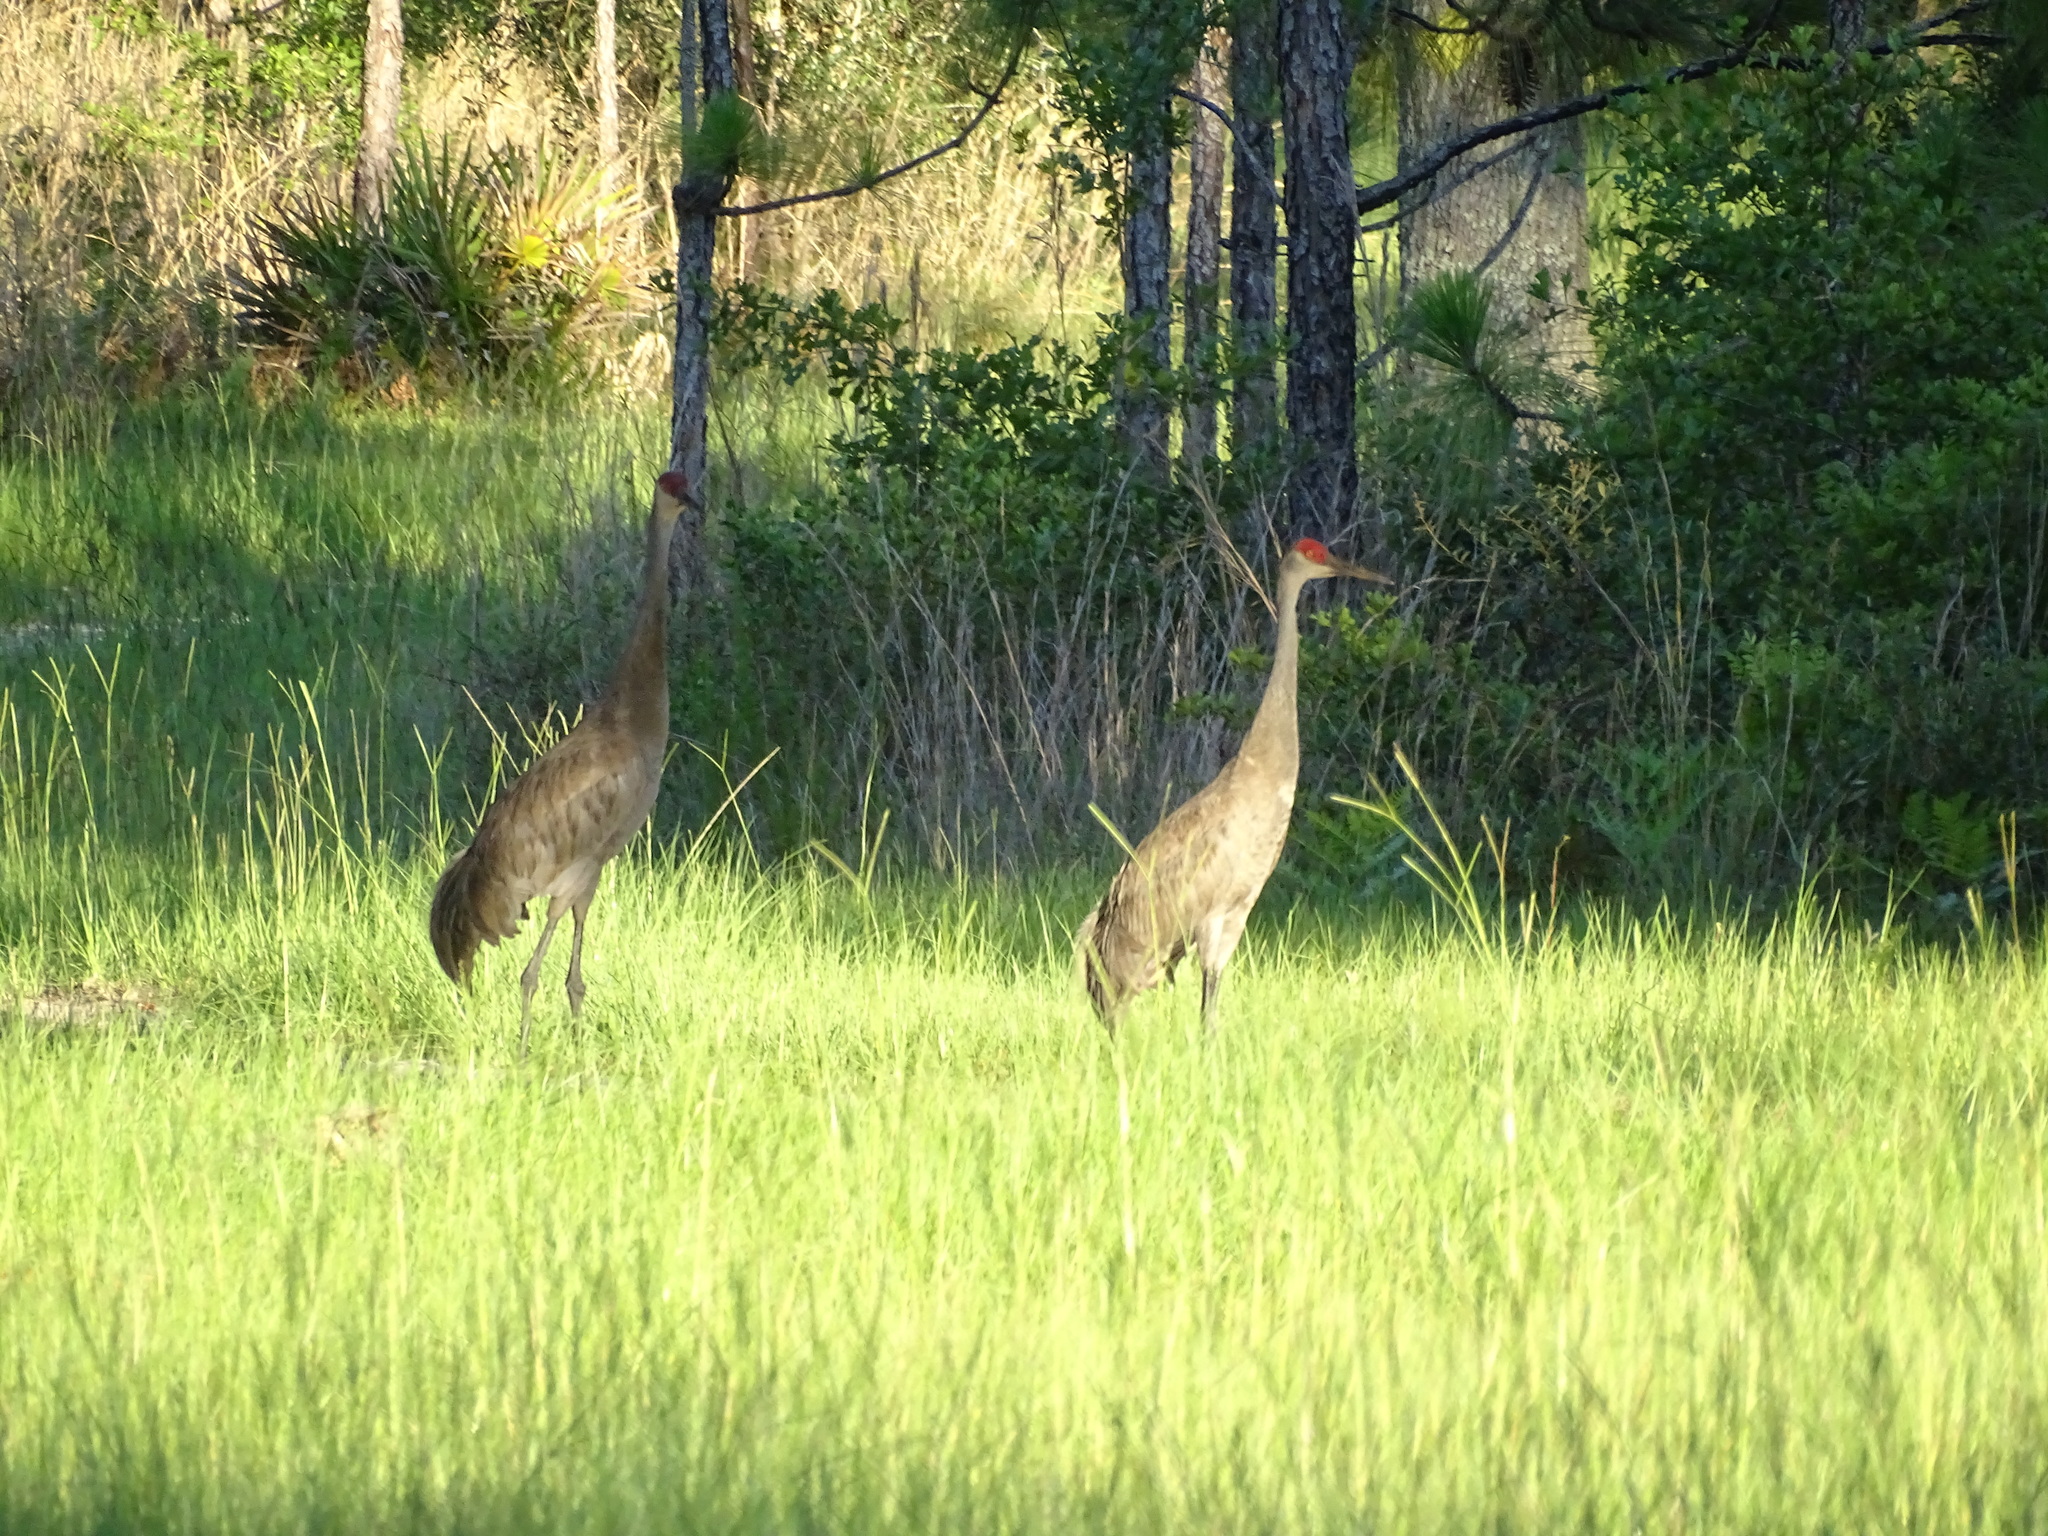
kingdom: Animalia
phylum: Chordata
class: Aves
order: Gruiformes
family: Gruidae
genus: Grus
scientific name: Grus canadensis
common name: Sandhill crane
